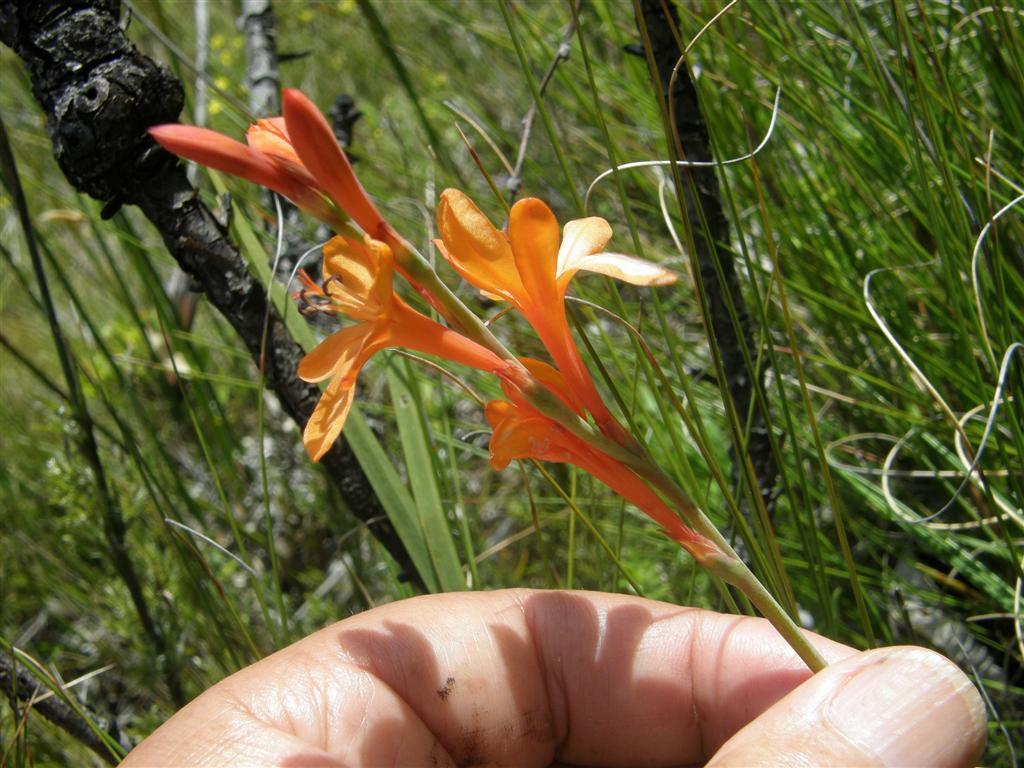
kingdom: Plantae
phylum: Tracheophyta
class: Liliopsida
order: Asparagales
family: Iridaceae
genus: Watsonia
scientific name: Watsonia minima
